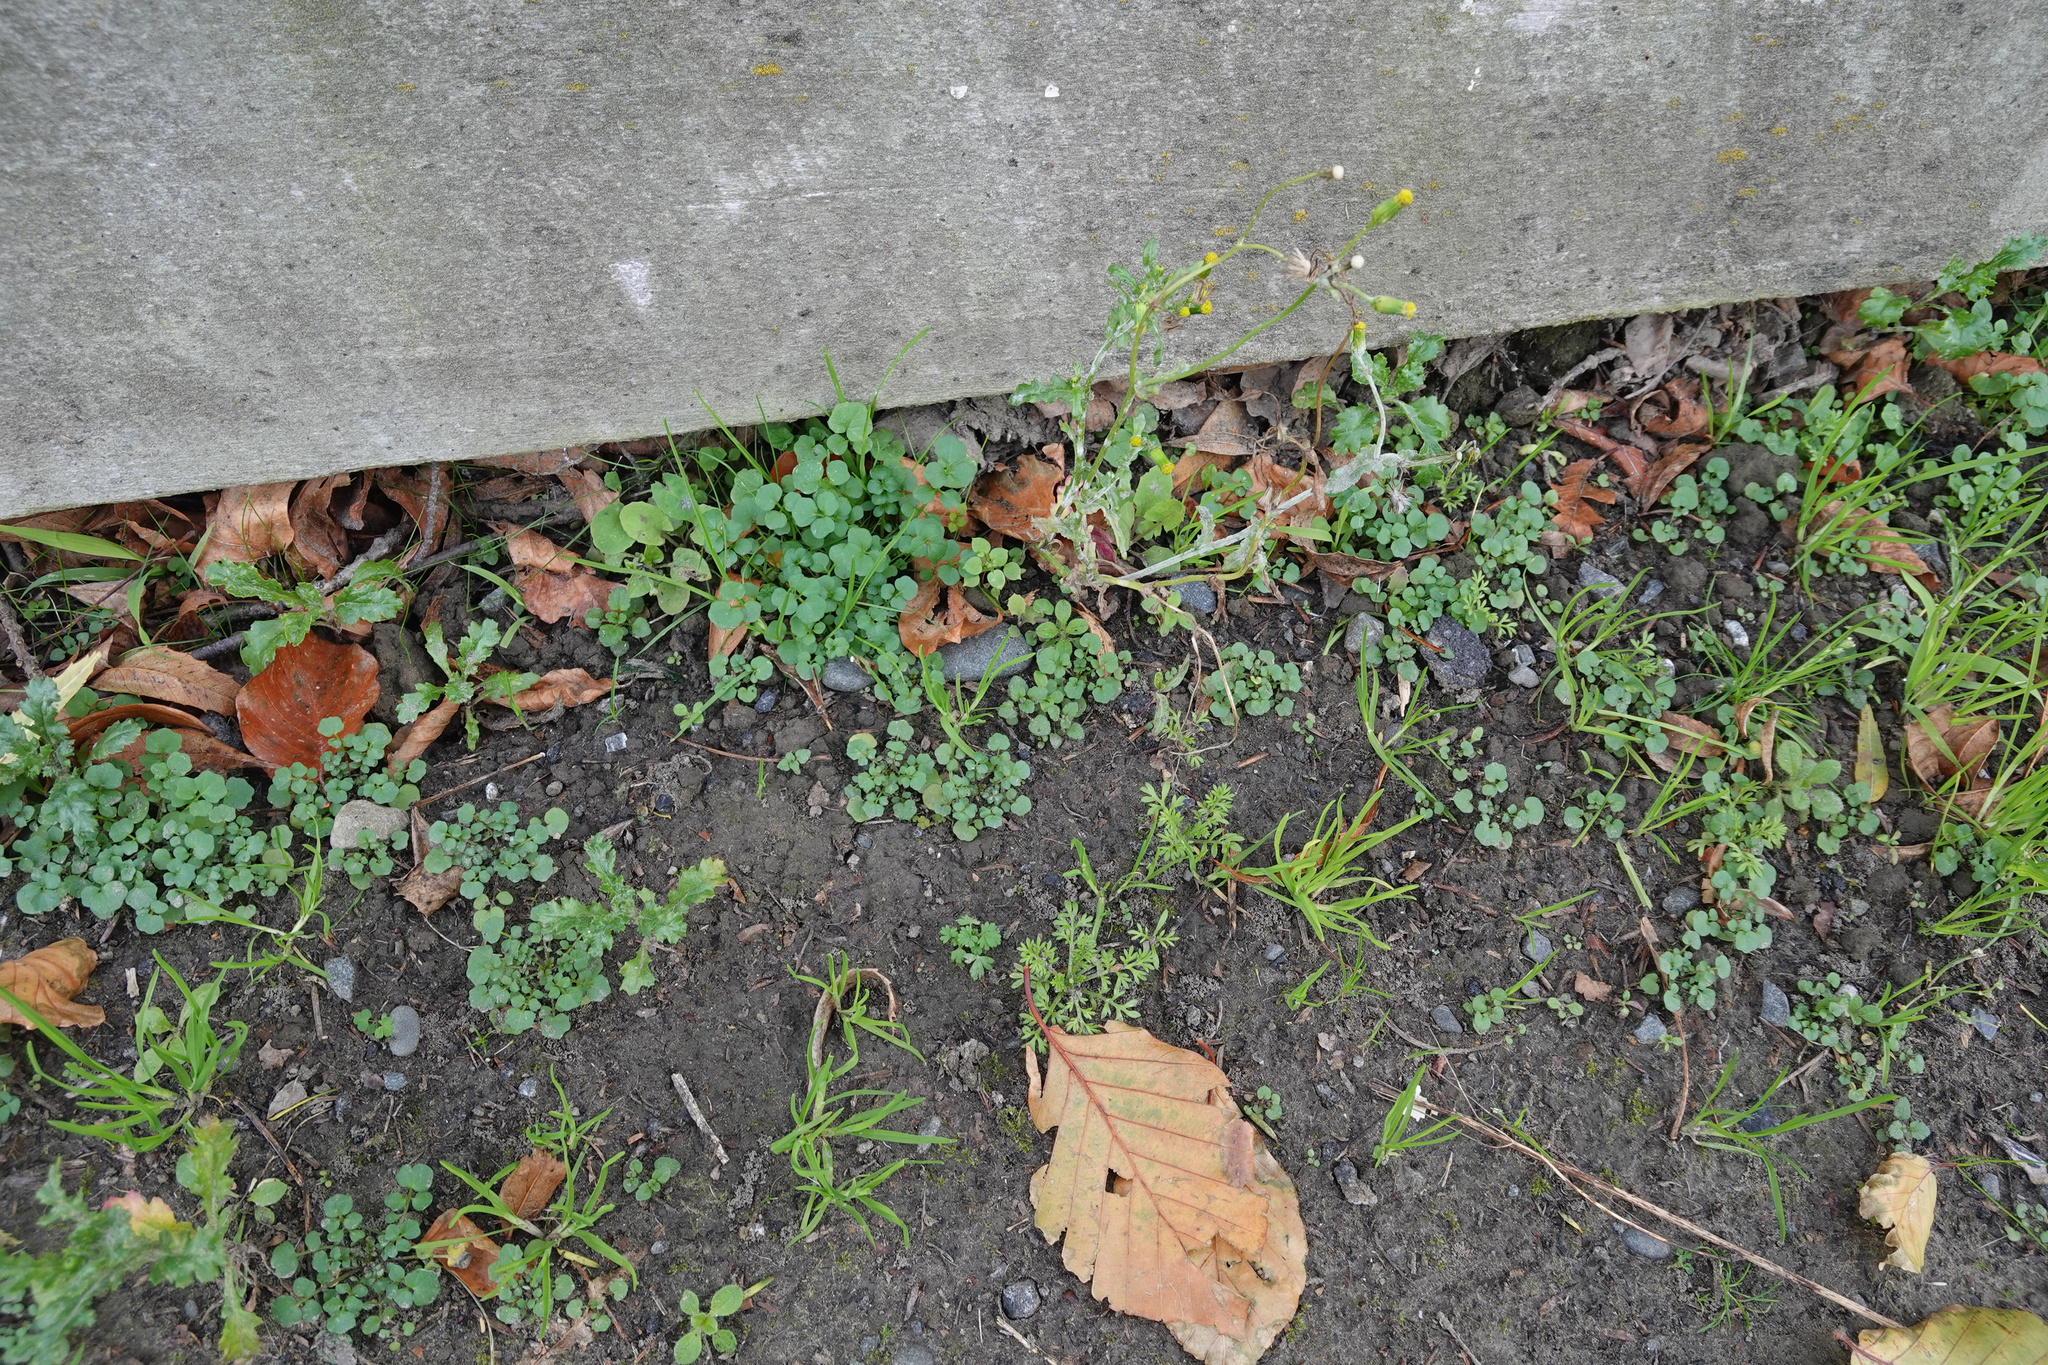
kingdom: Plantae
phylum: Tracheophyta
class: Magnoliopsida
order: Asterales
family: Asteraceae
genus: Senecio
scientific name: Senecio vulgaris
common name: Old-man-in-the-spring
